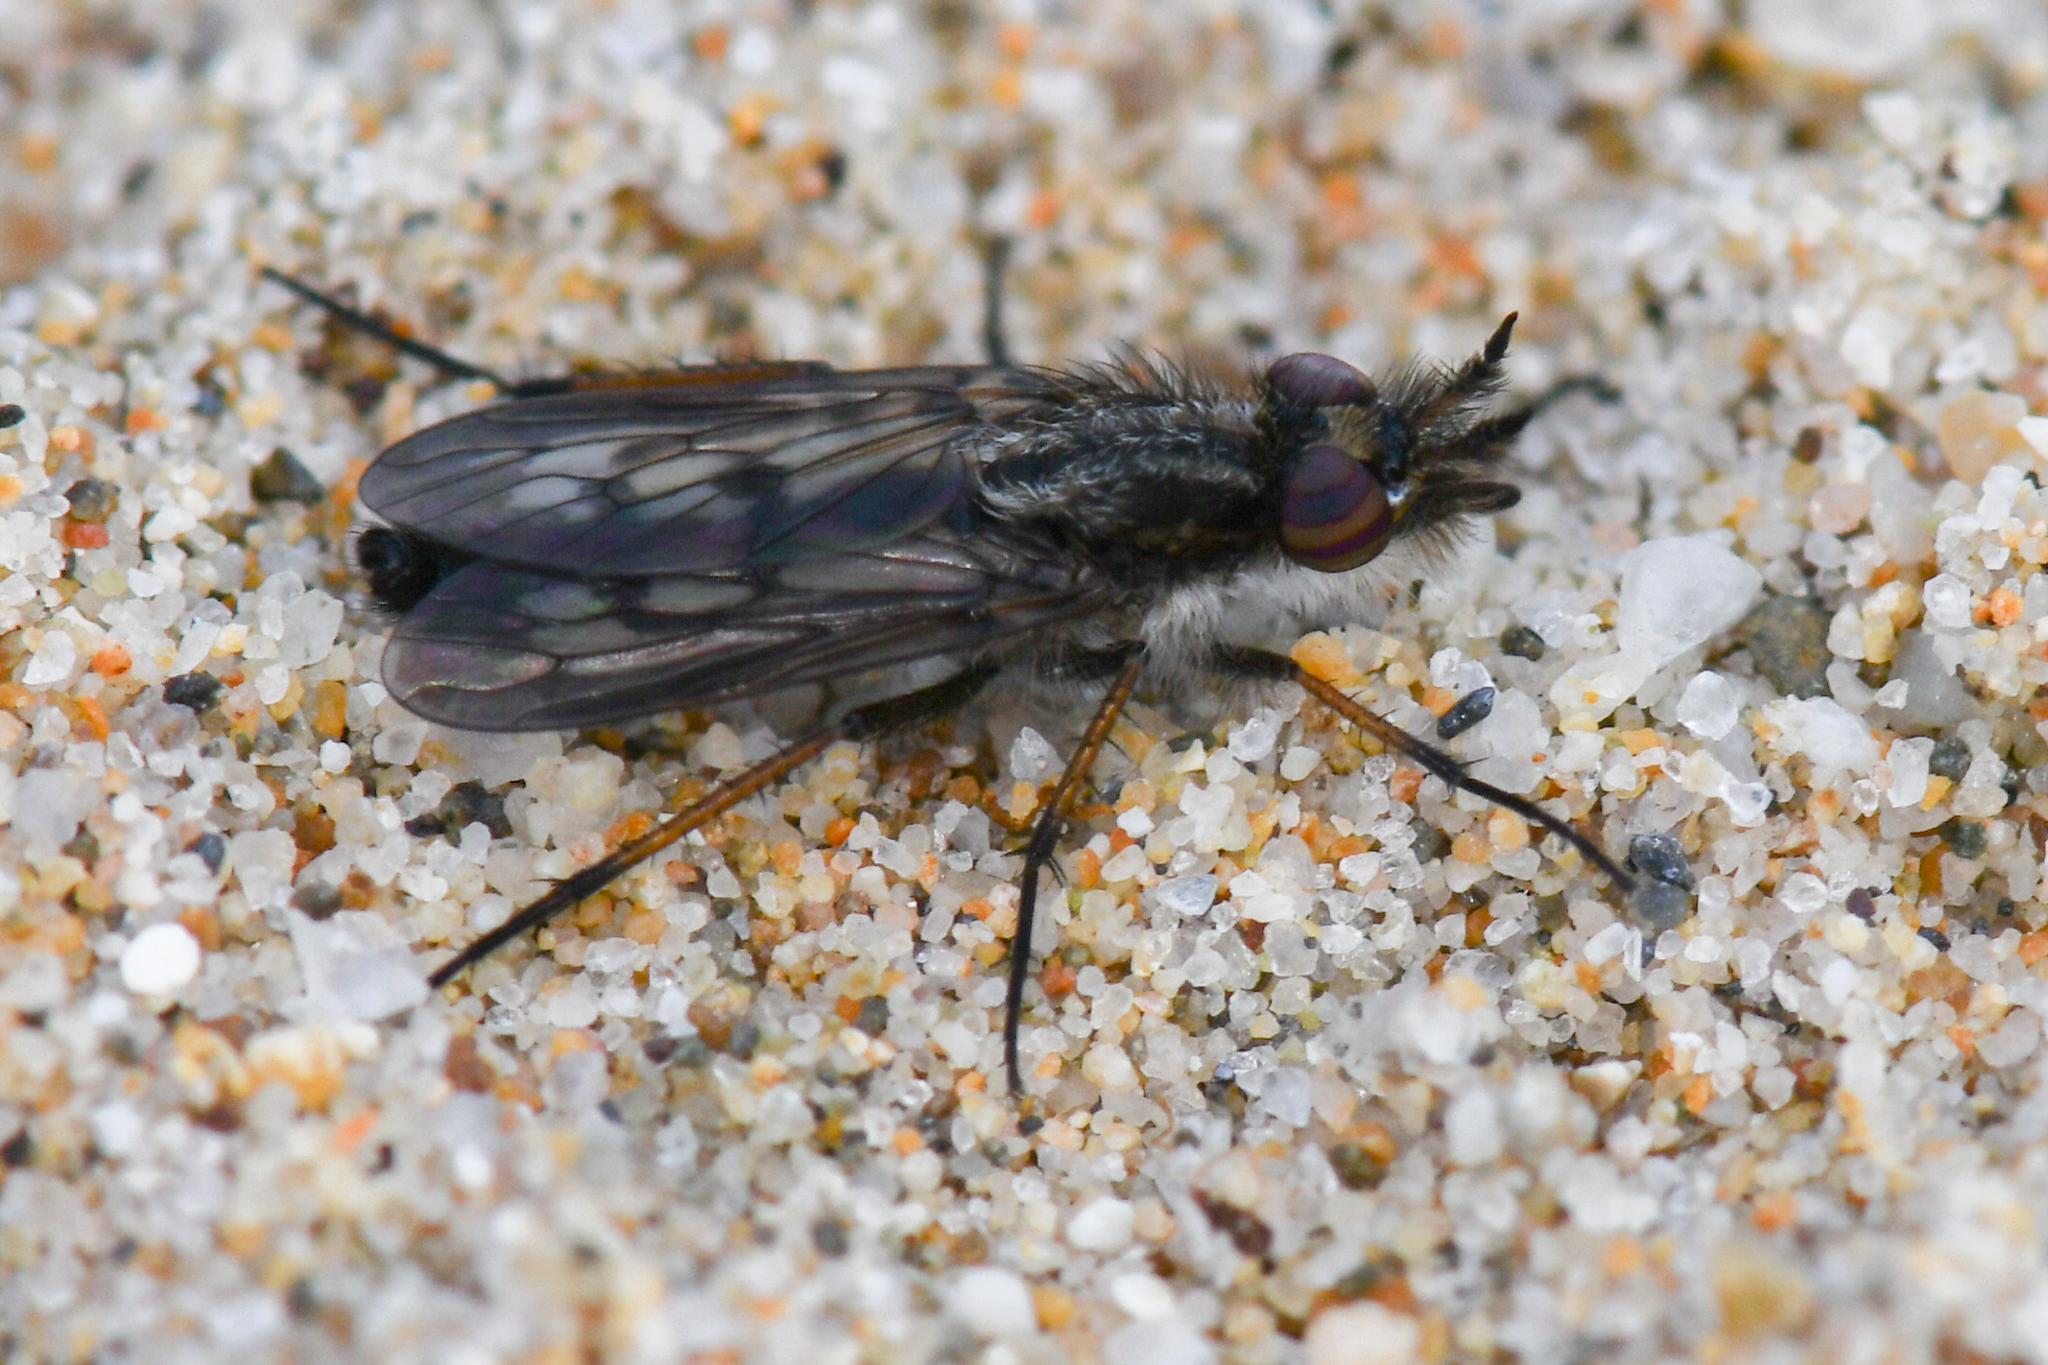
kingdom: Animalia
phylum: Arthropoda
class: Insecta
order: Diptera
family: Therevidae
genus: Nebritus
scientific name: Nebritus powelli
